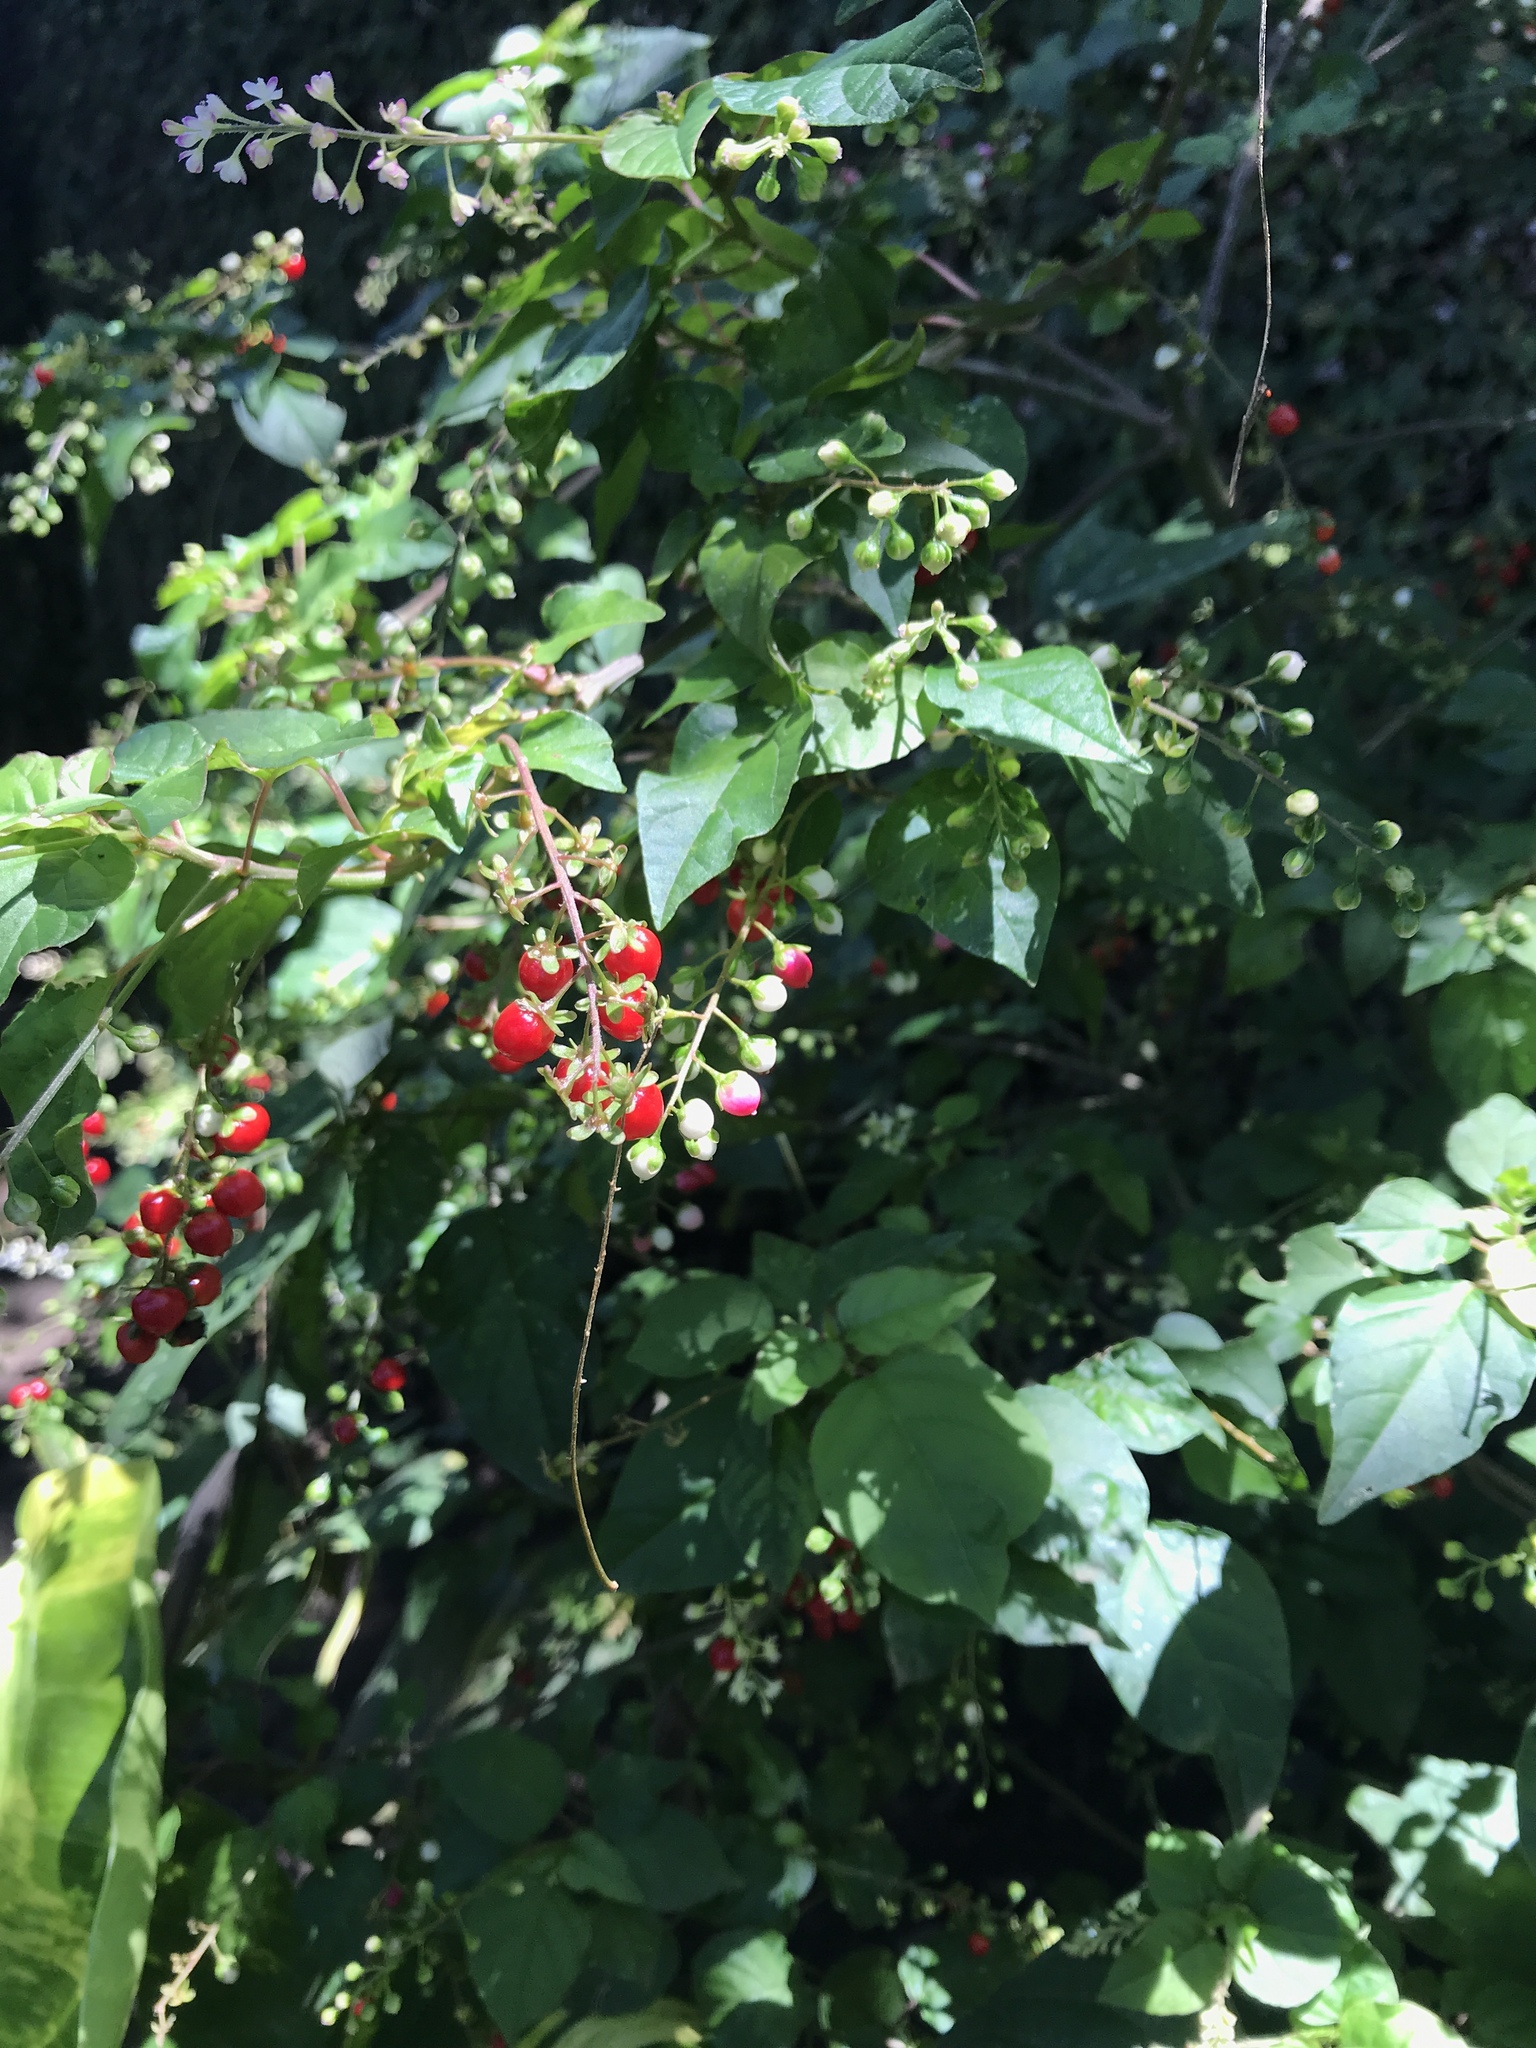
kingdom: Plantae
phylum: Tracheophyta
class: Magnoliopsida
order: Caryophyllales
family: Phytolaccaceae
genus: Rivina
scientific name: Rivina humilis
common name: Rougeplant
